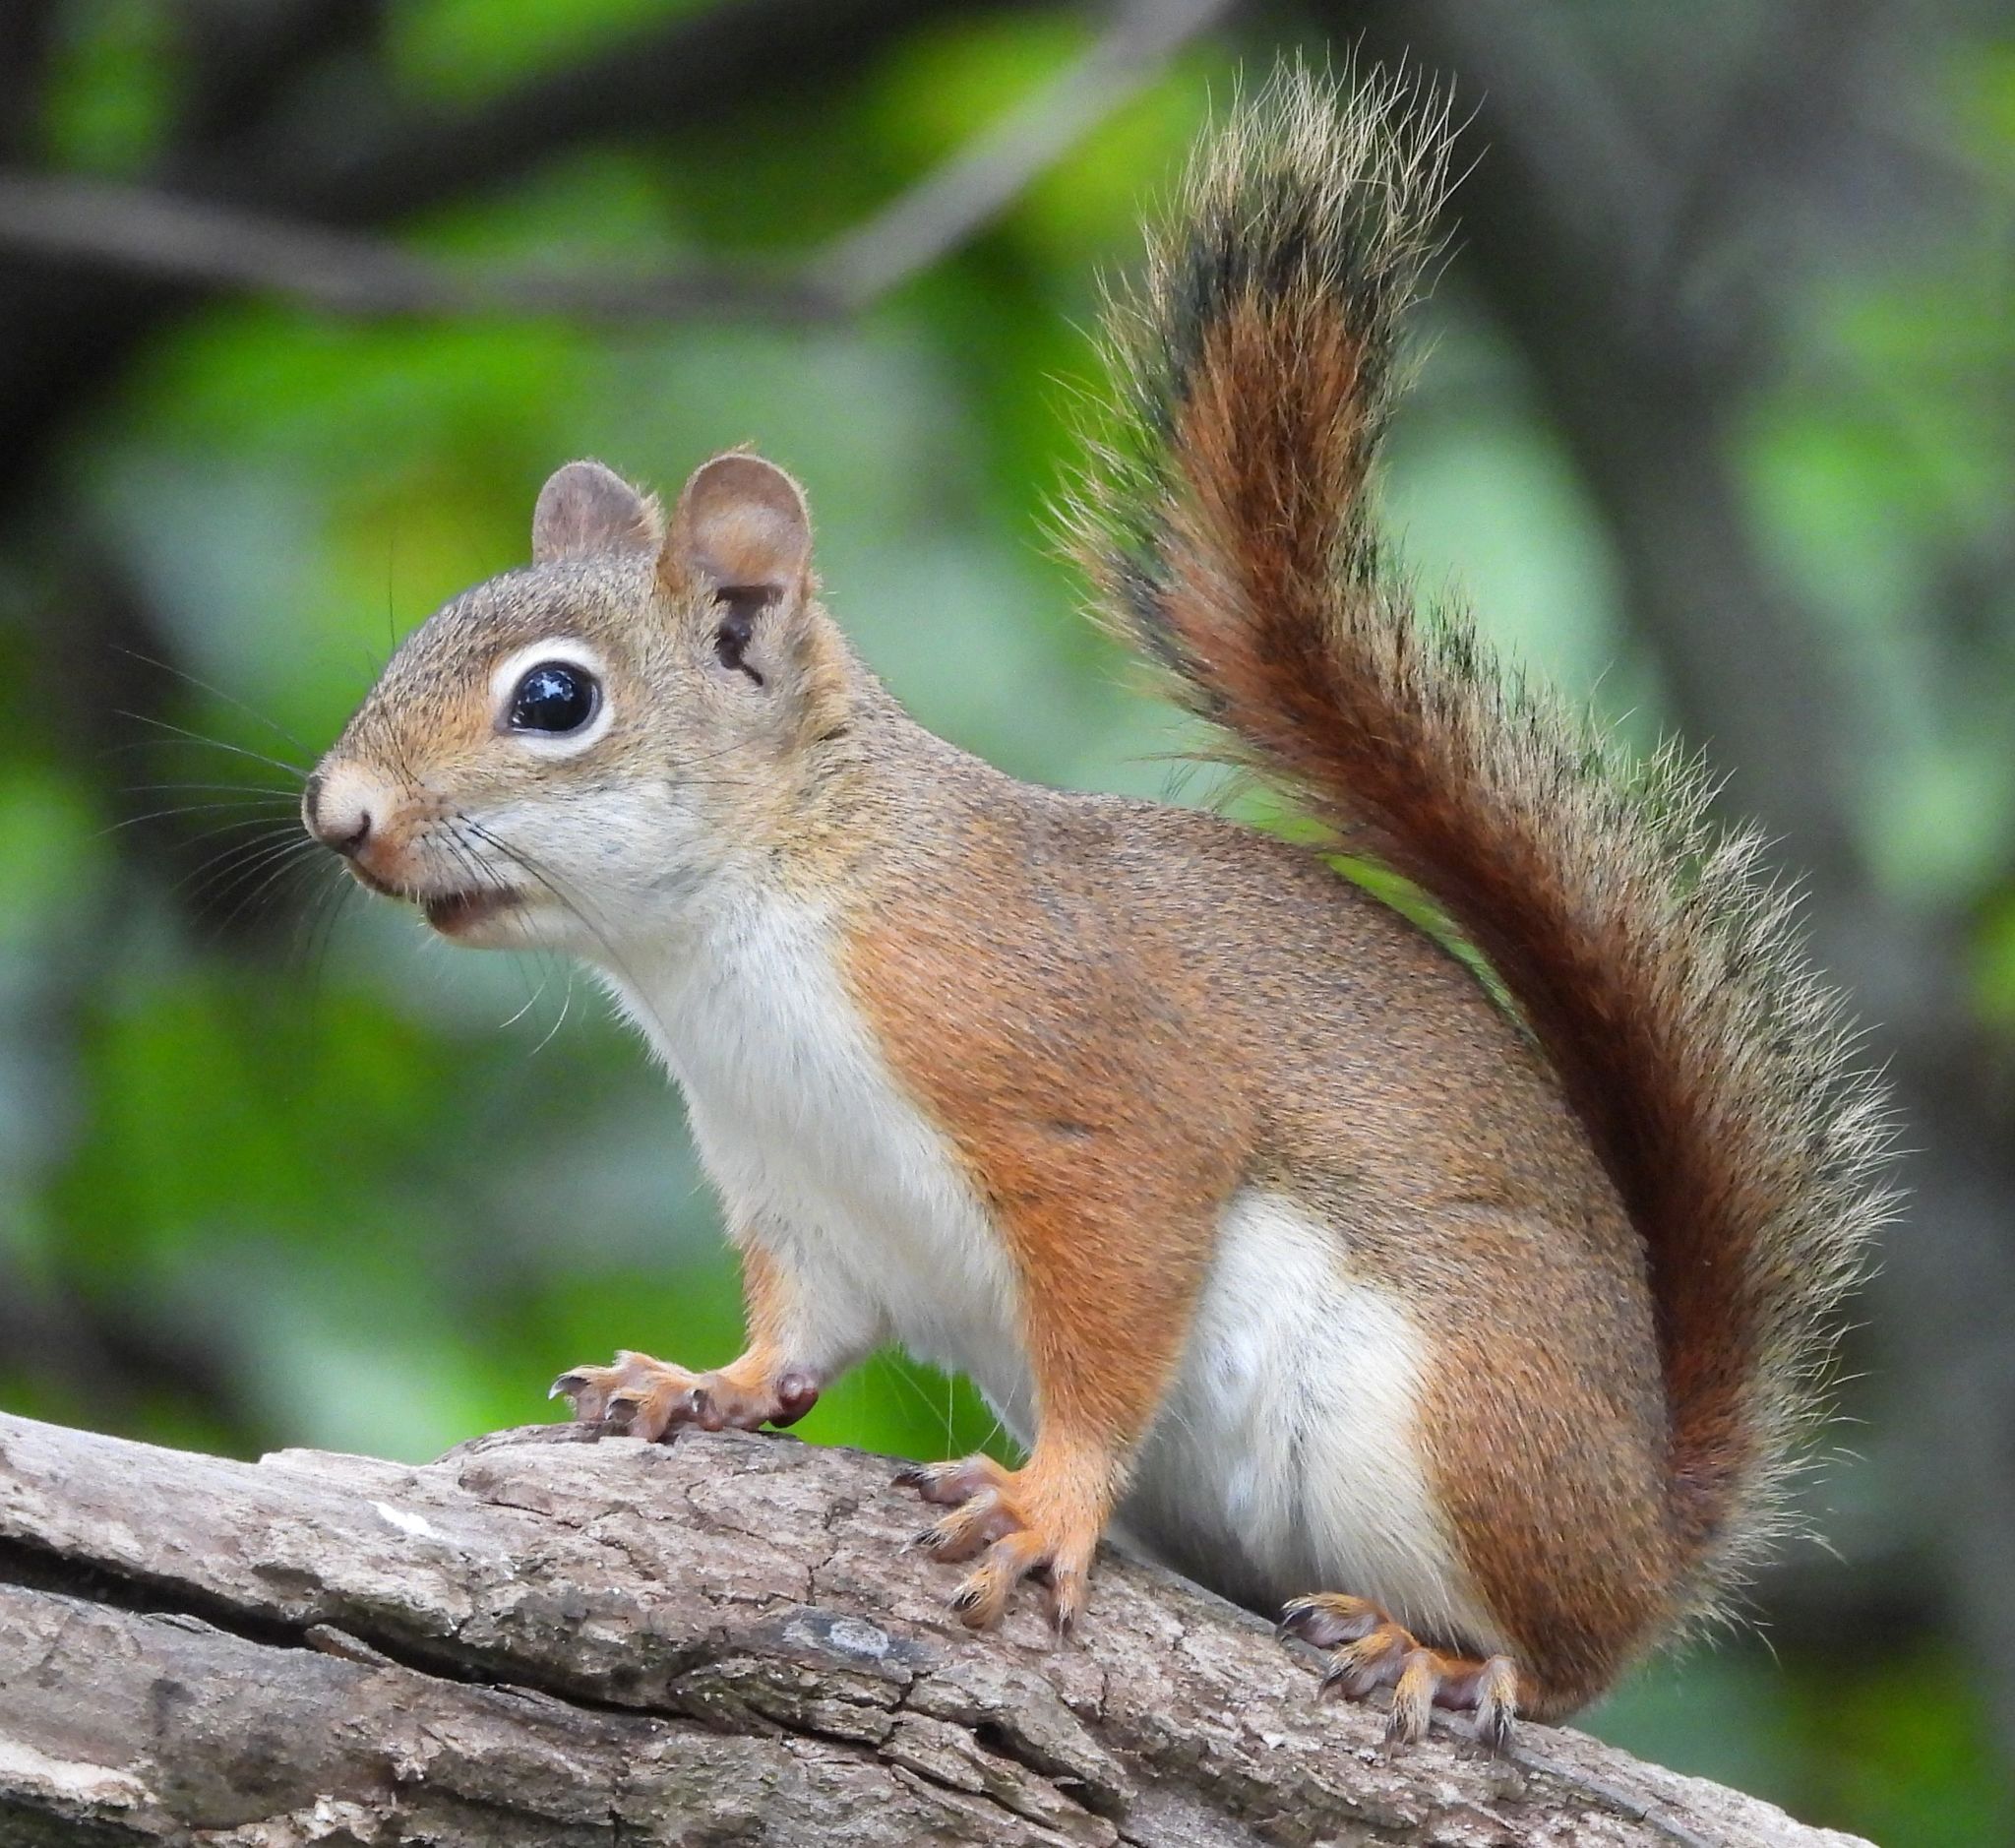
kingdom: Animalia
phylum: Chordata
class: Mammalia
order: Rodentia
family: Sciuridae
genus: Tamiasciurus
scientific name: Tamiasciurus hudsonicus
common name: Red squirrel
